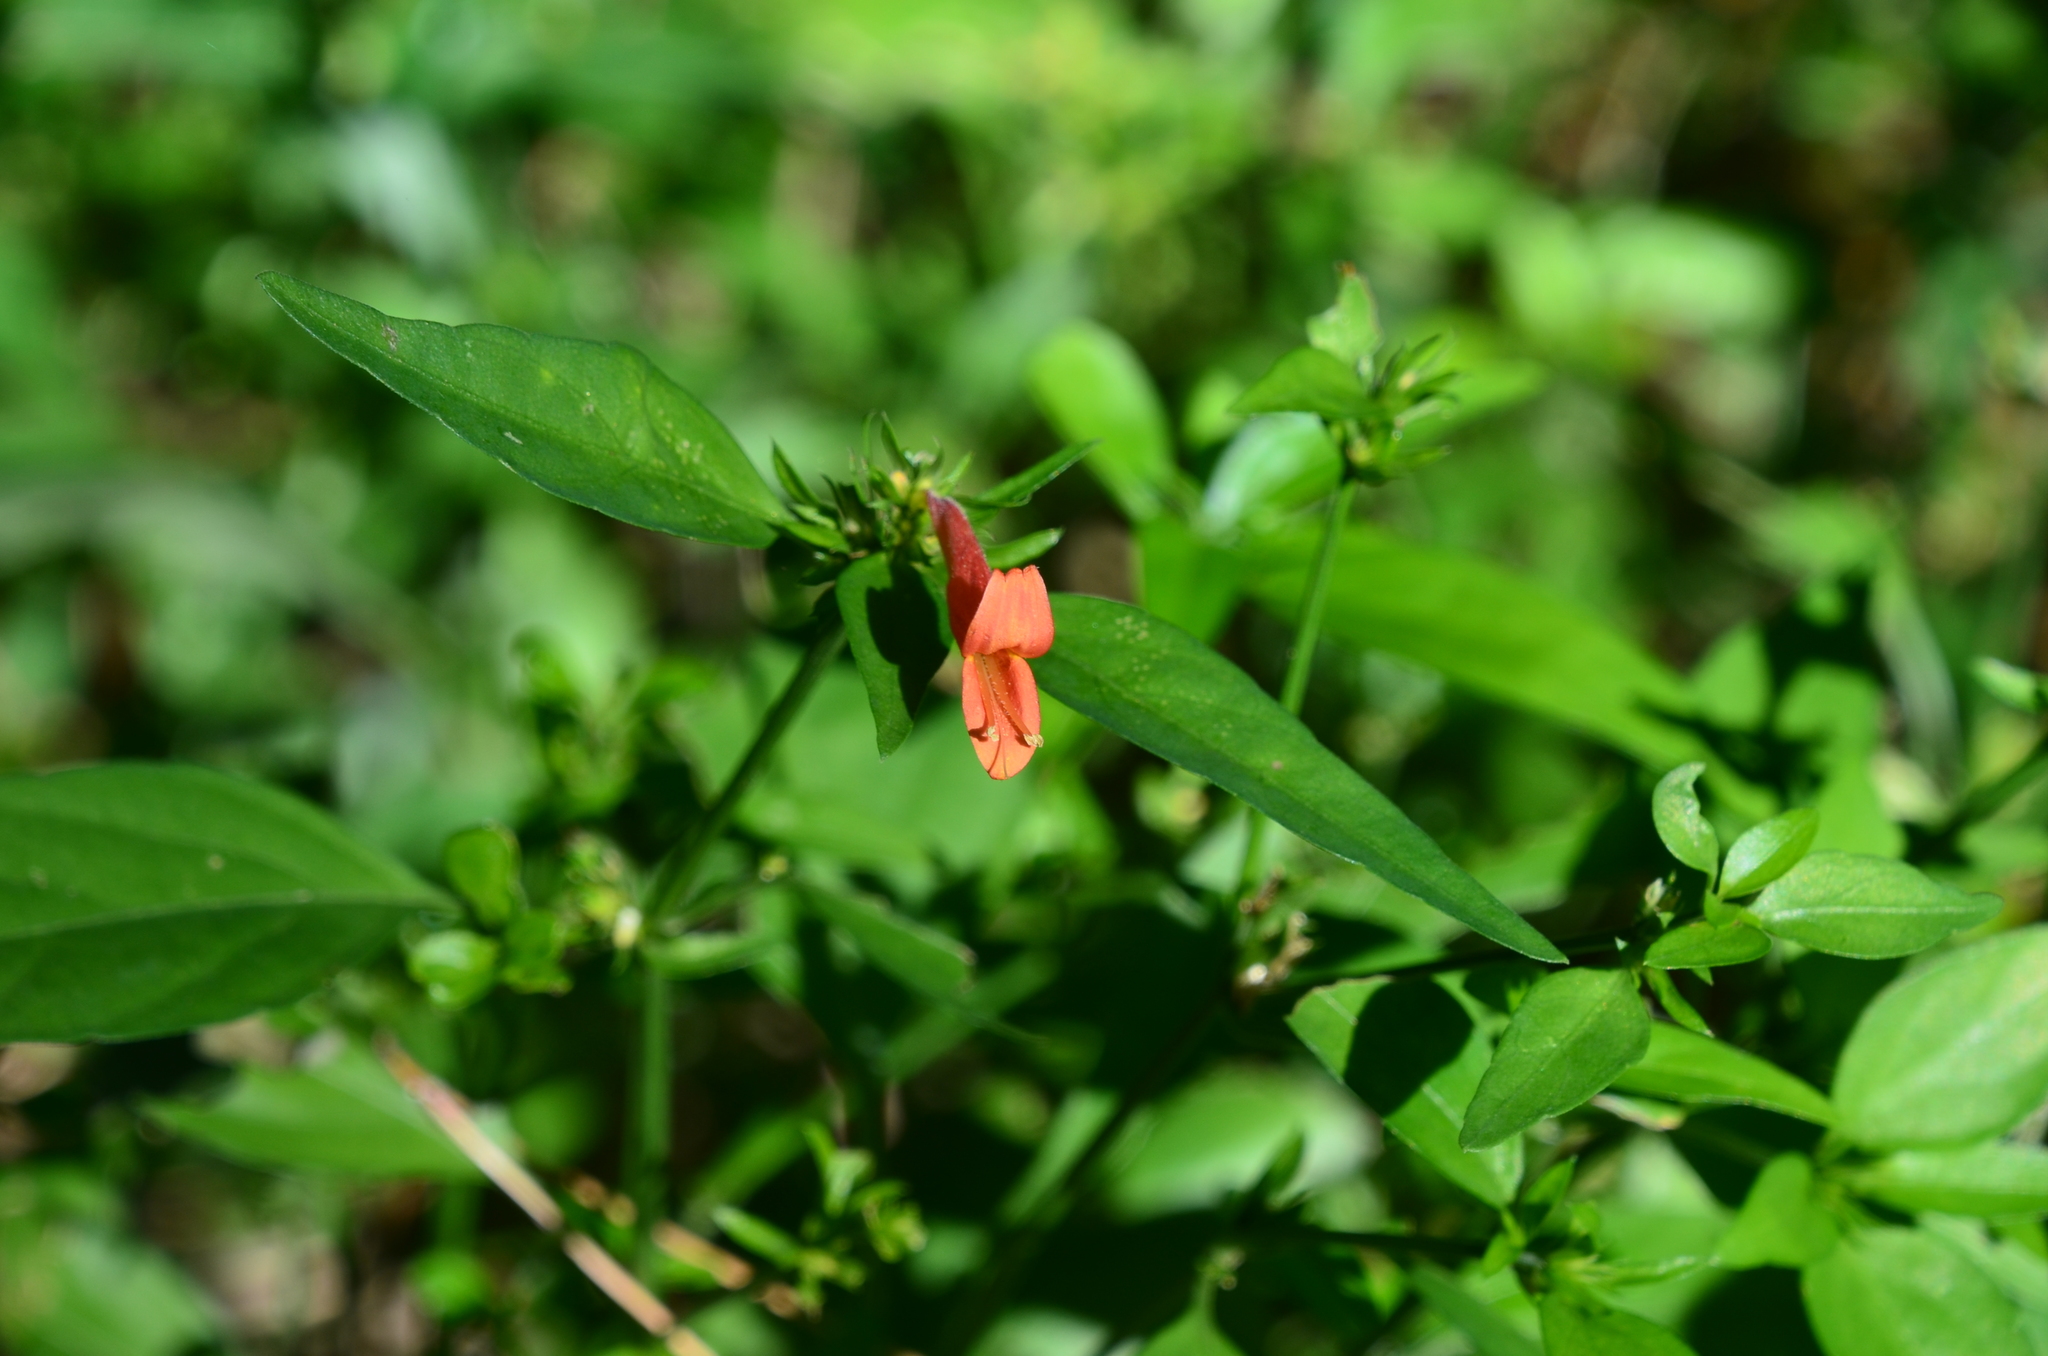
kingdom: Plantae
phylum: Tracheophyta
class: Magnoliopsida
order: Lamiales
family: Acanthaceae
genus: Dicliptera
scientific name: Dicliptera squarrosa
